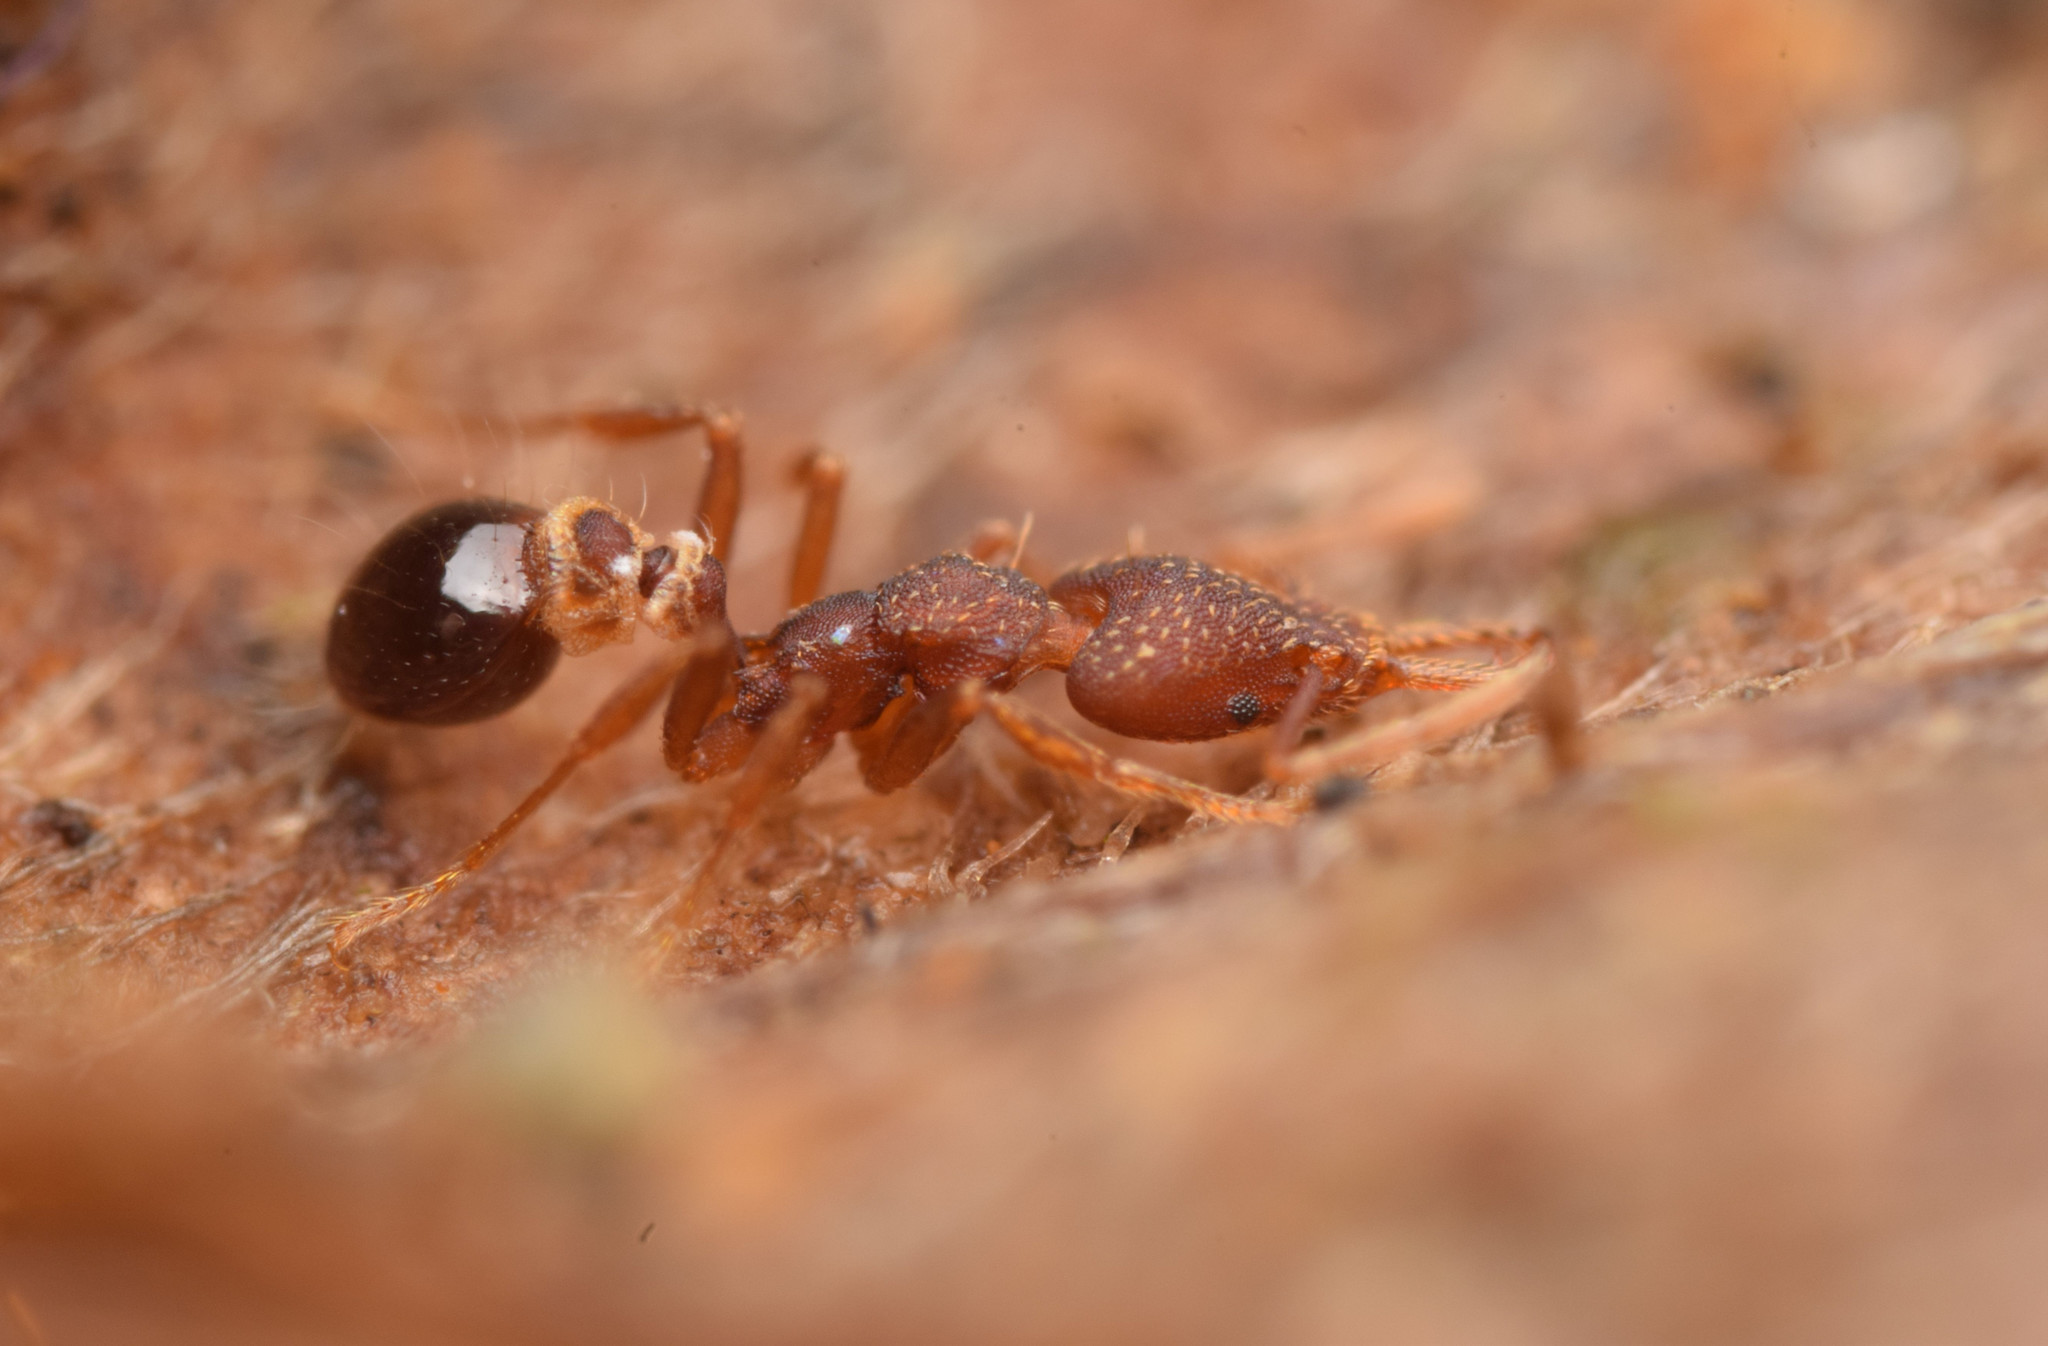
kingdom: Animalia
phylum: Arthropoda
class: Insecta
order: Hymenoptera
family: Formicidae
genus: Strumigenys
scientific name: Strumigenys biolleyi
